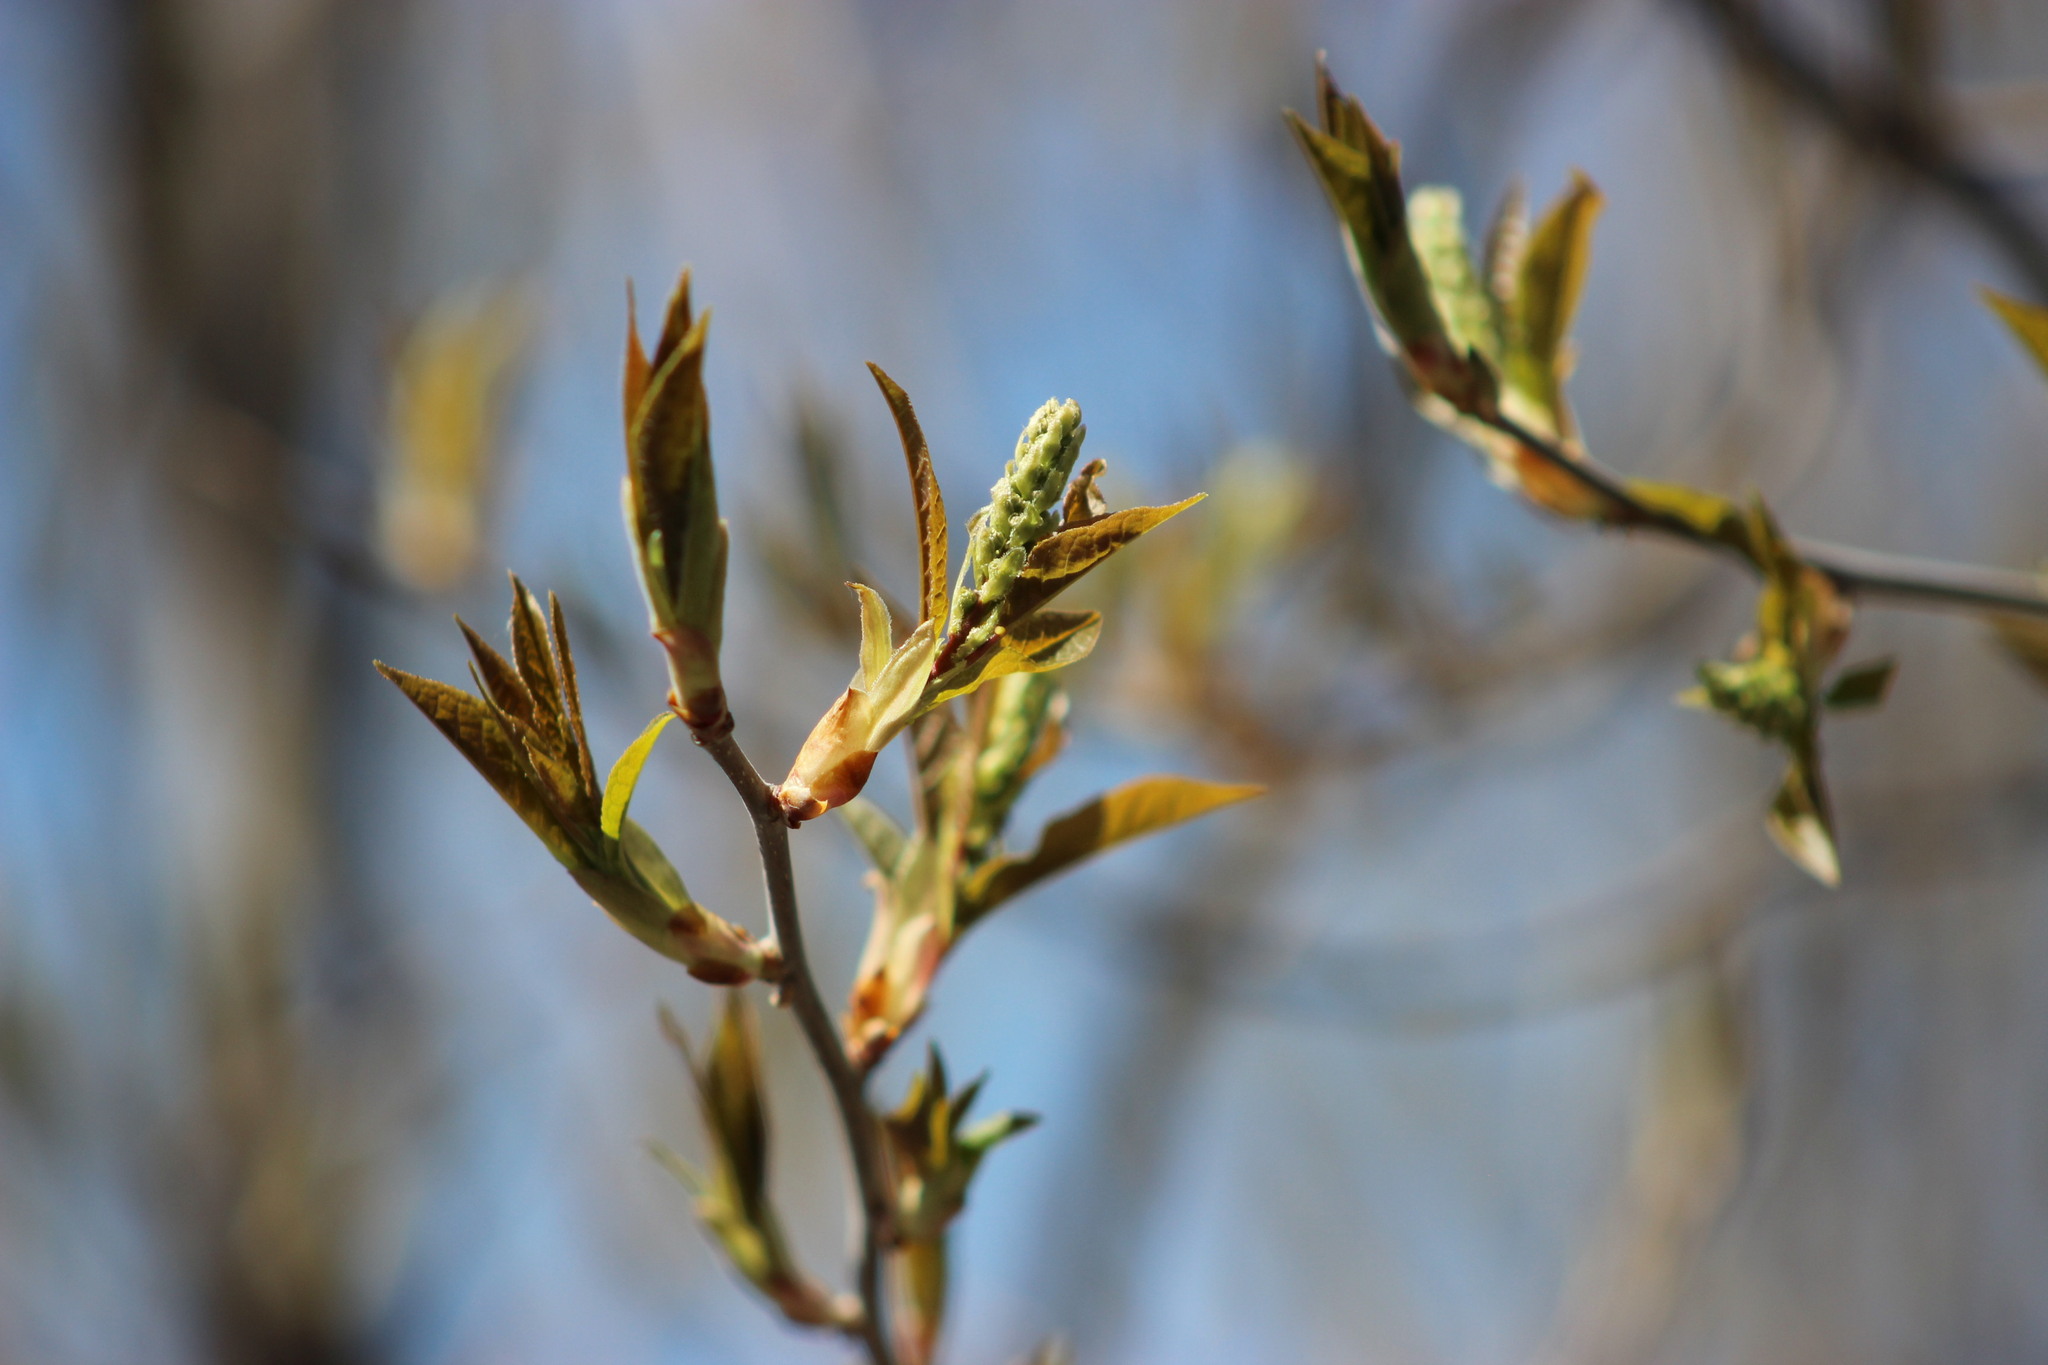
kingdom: Plantae
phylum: Tracheophyta
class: Magnoliopsida
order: Rosales
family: Rosaceae
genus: Prunus
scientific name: Prunus padus
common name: Bird cherry
